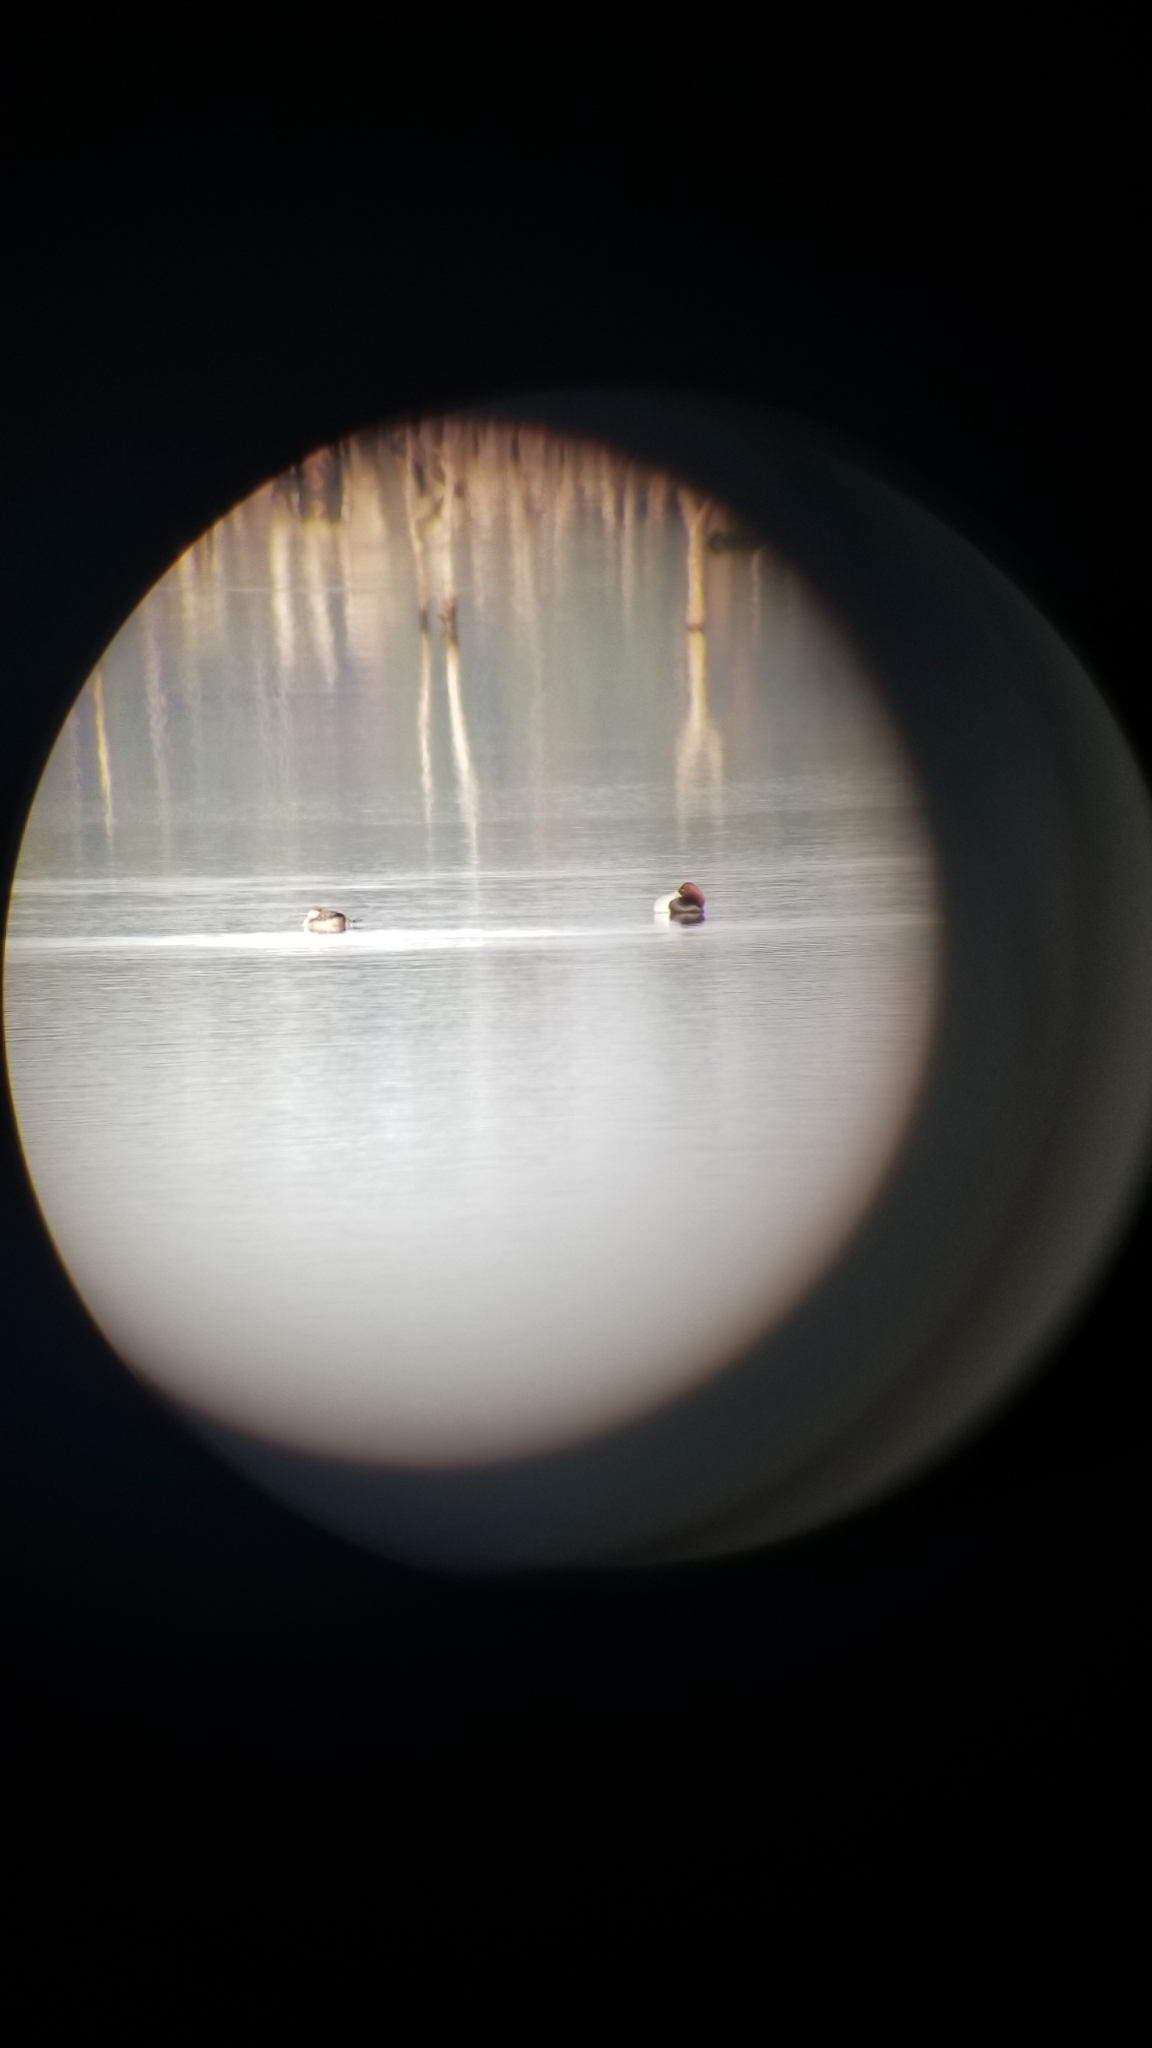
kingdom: Animalia
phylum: Chordata
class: Aves
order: Anseriformes
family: Anatidae
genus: Aythya
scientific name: Aythya valisineria
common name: Canvasback
